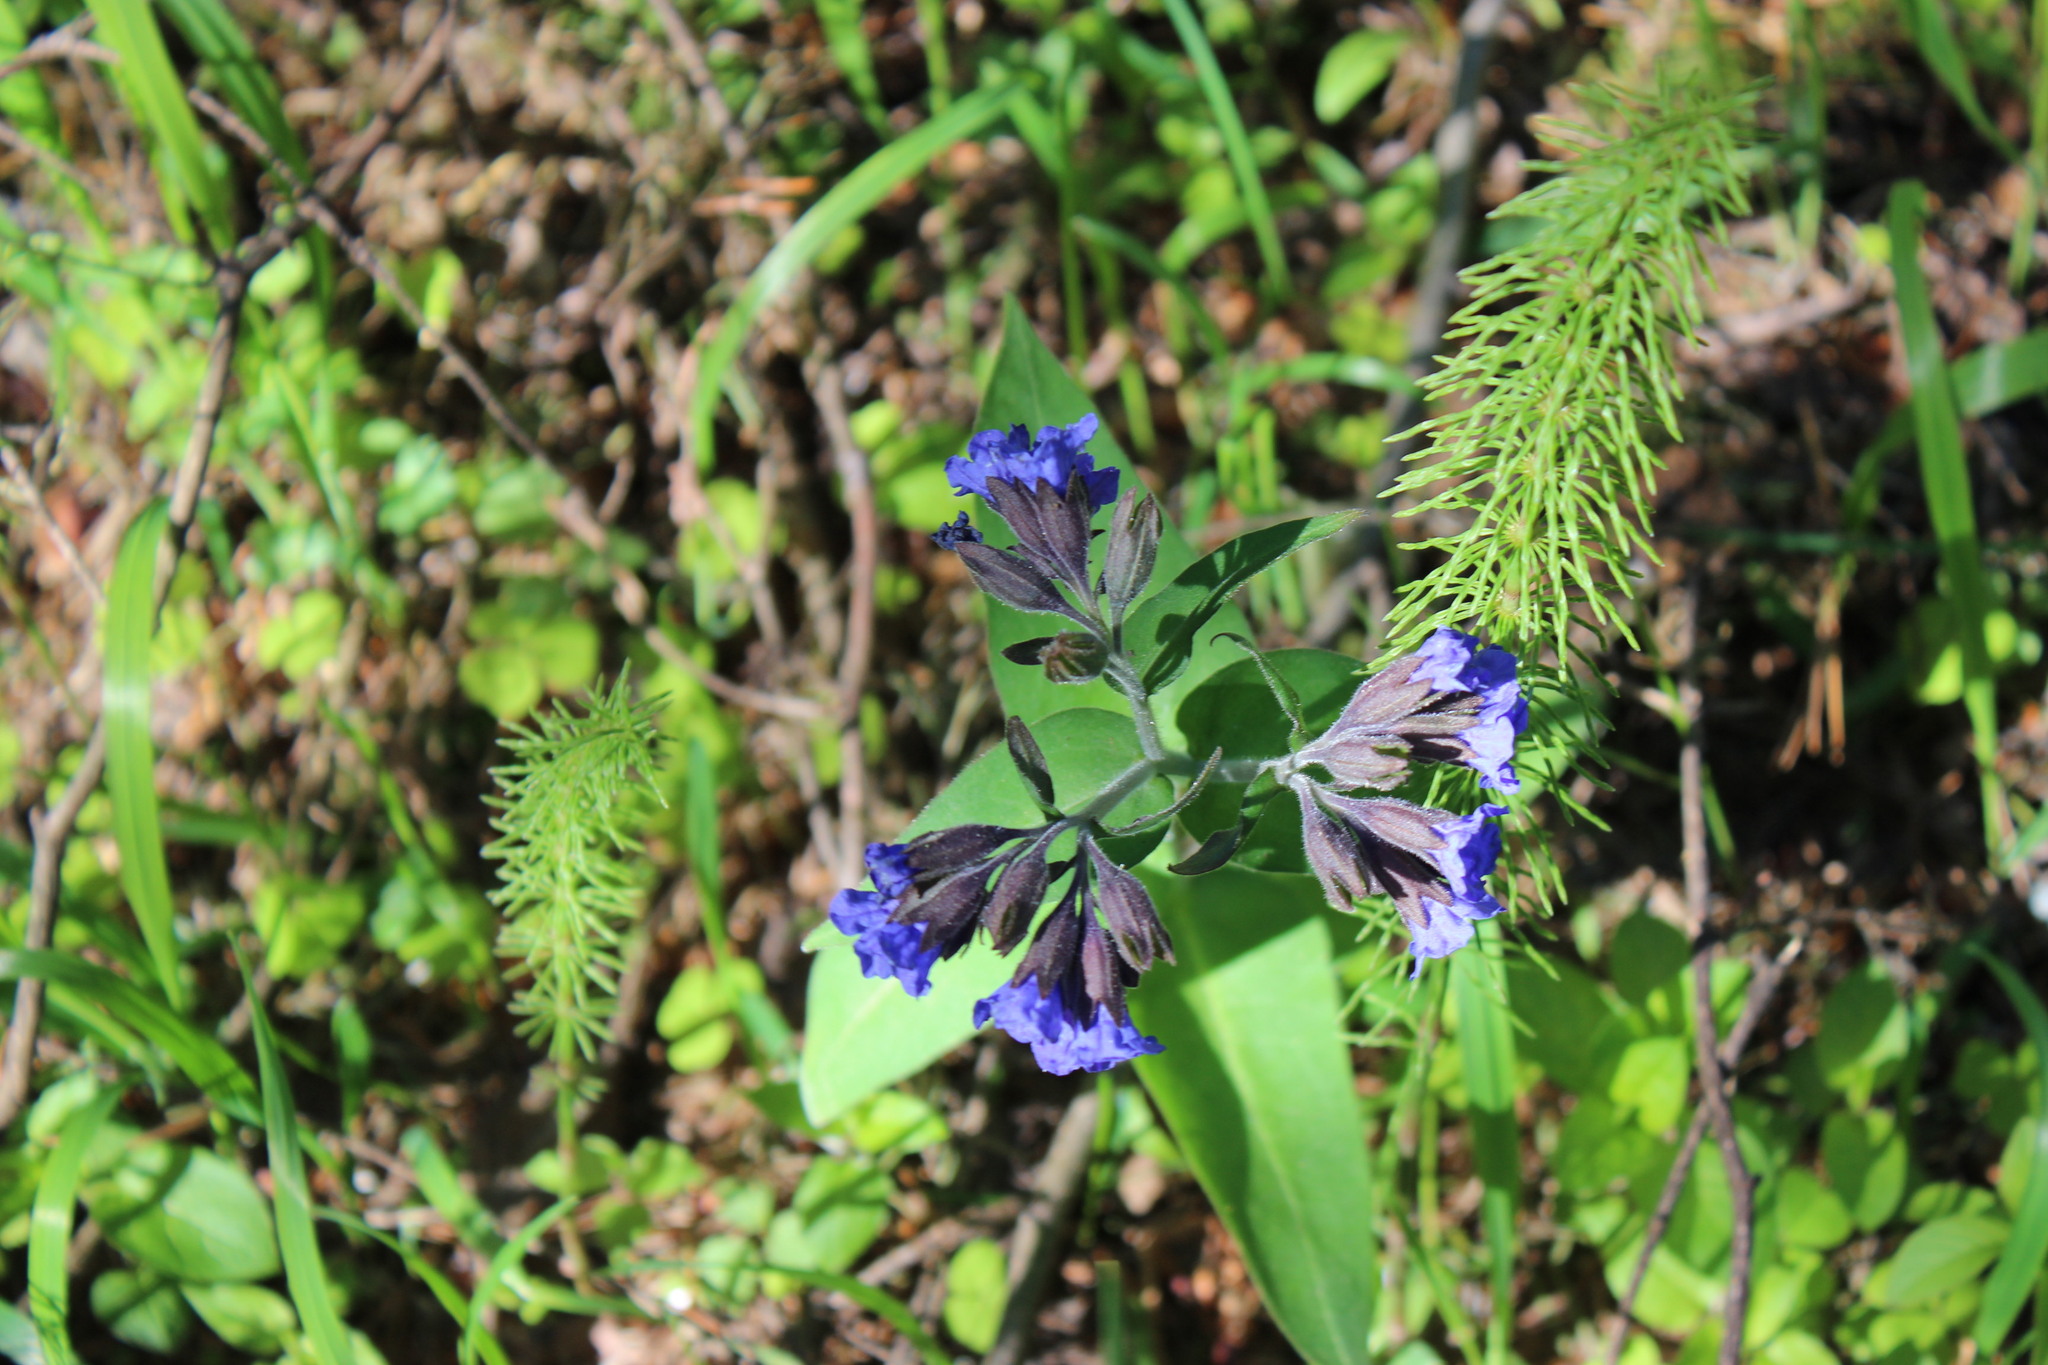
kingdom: Plantae
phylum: Tracheophyta
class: Magnoliopsida
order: Boraginales
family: Boraginaceae
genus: Pulmonaria
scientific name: Pulmonaria mollis
